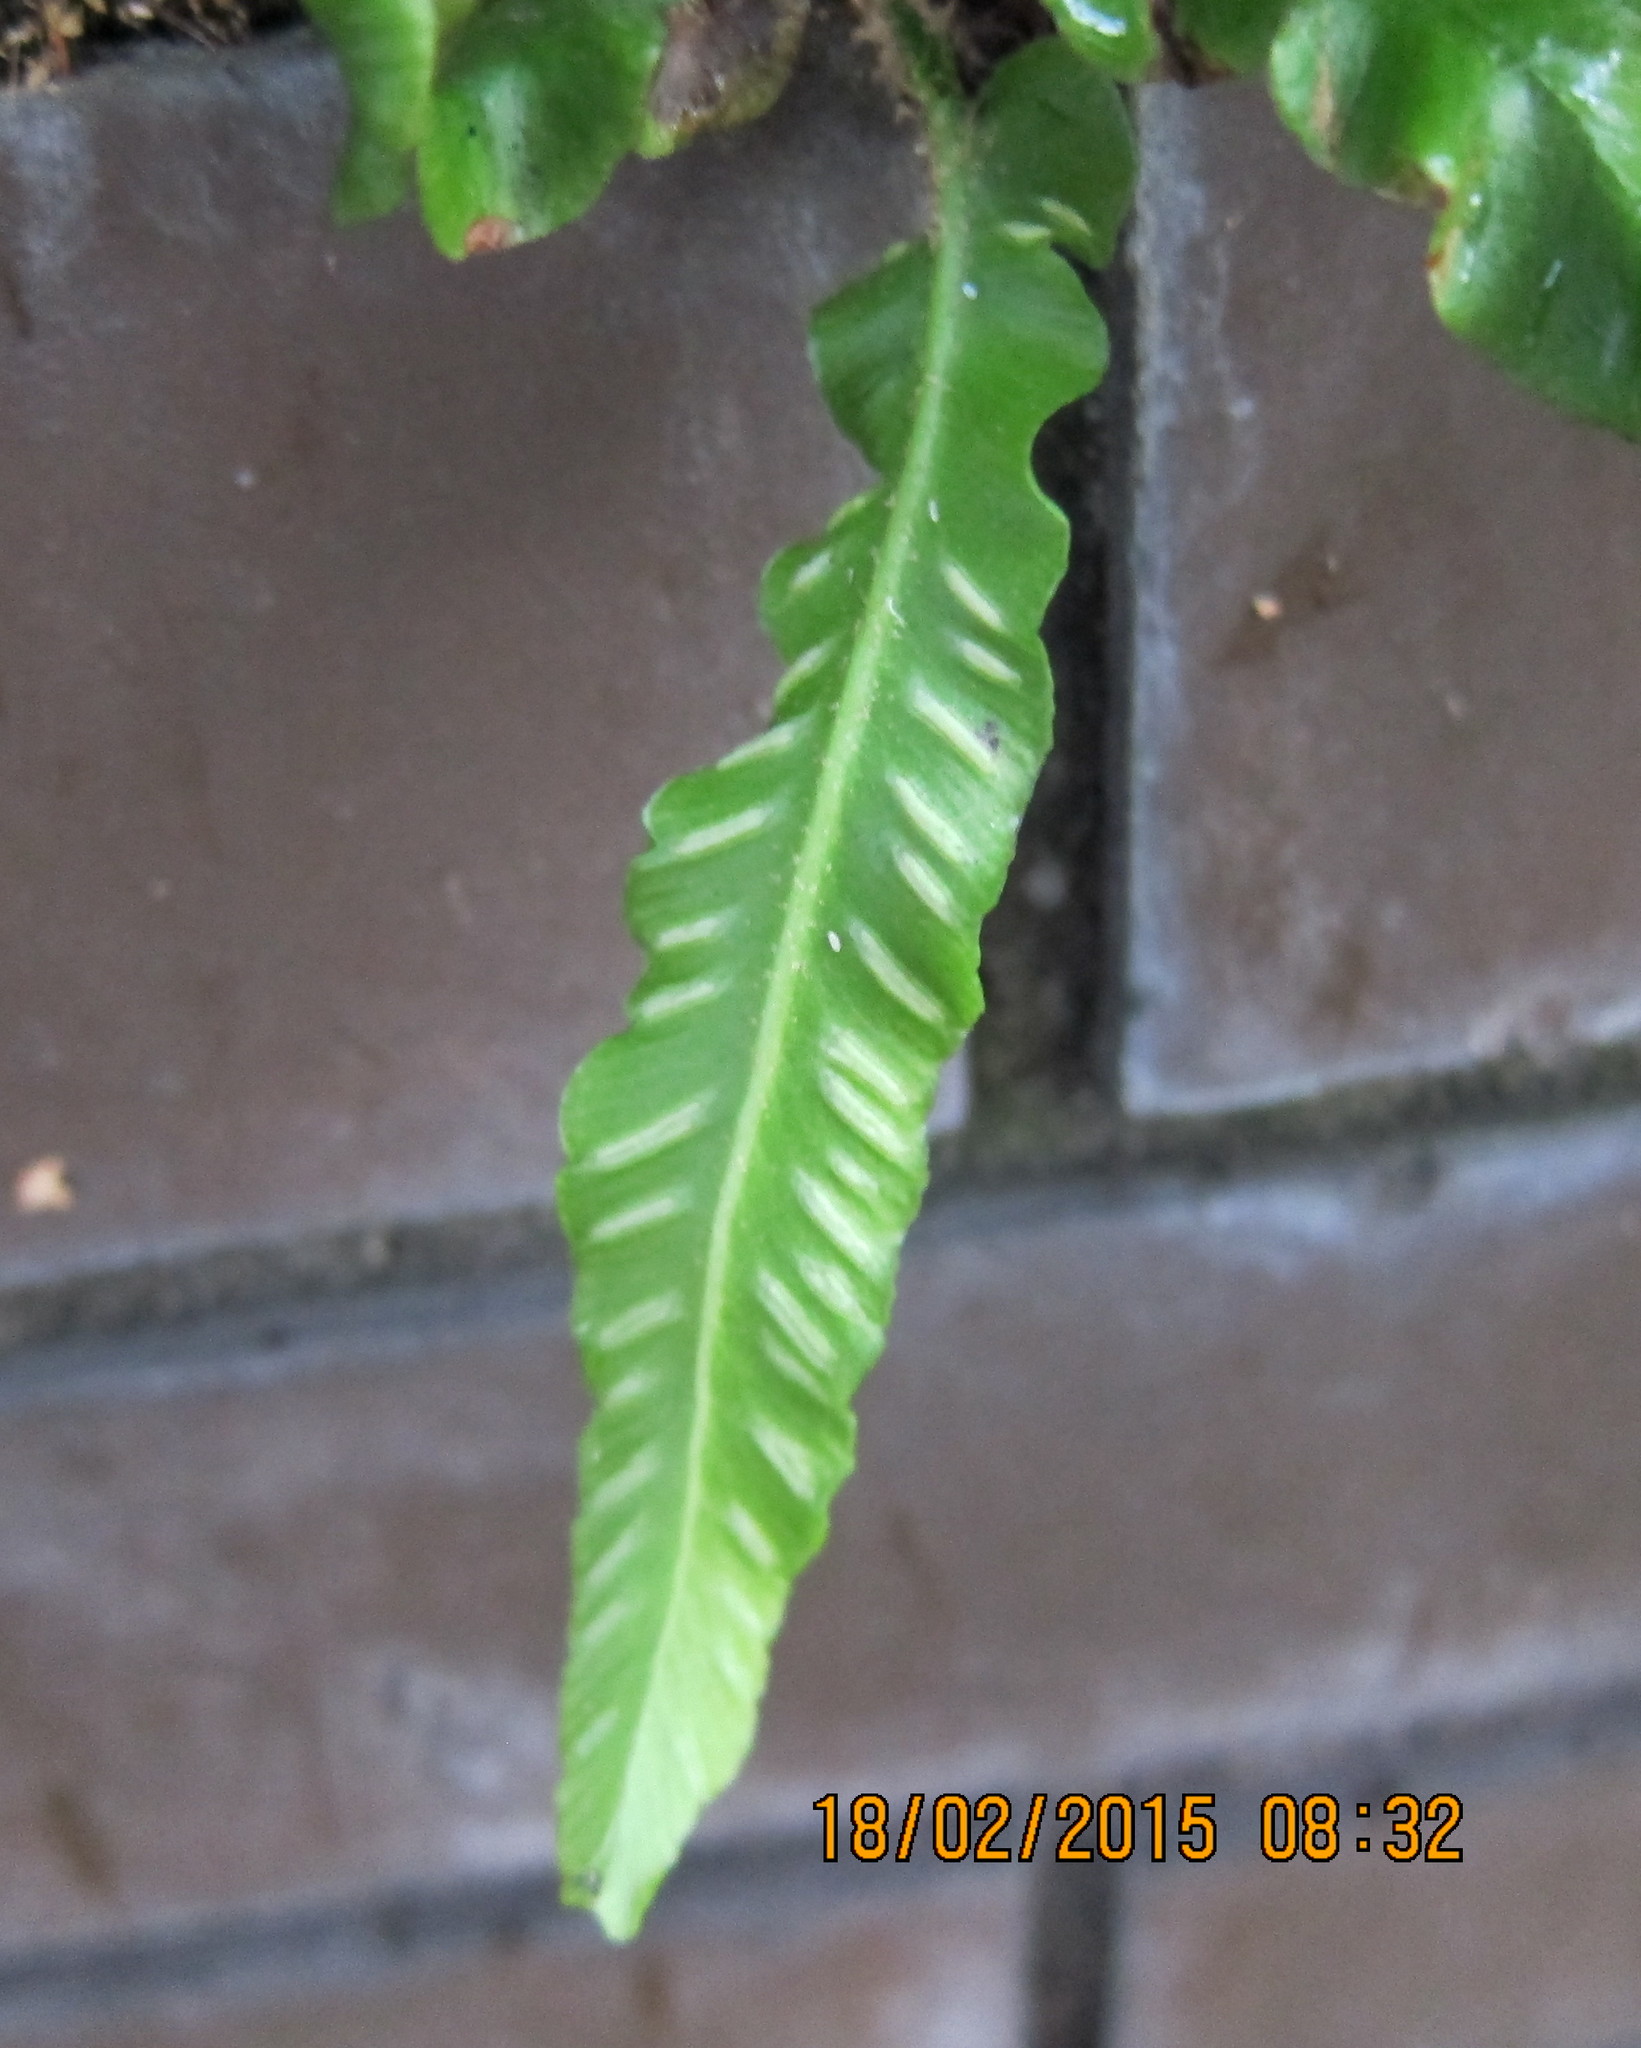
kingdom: Plantae
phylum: Tracheophyta
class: Polypodiopsida
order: Polypodiales
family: Aspleniaceae
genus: Asplenium
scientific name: Asplenium scolopendrium
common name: Hart's-tongue fern
